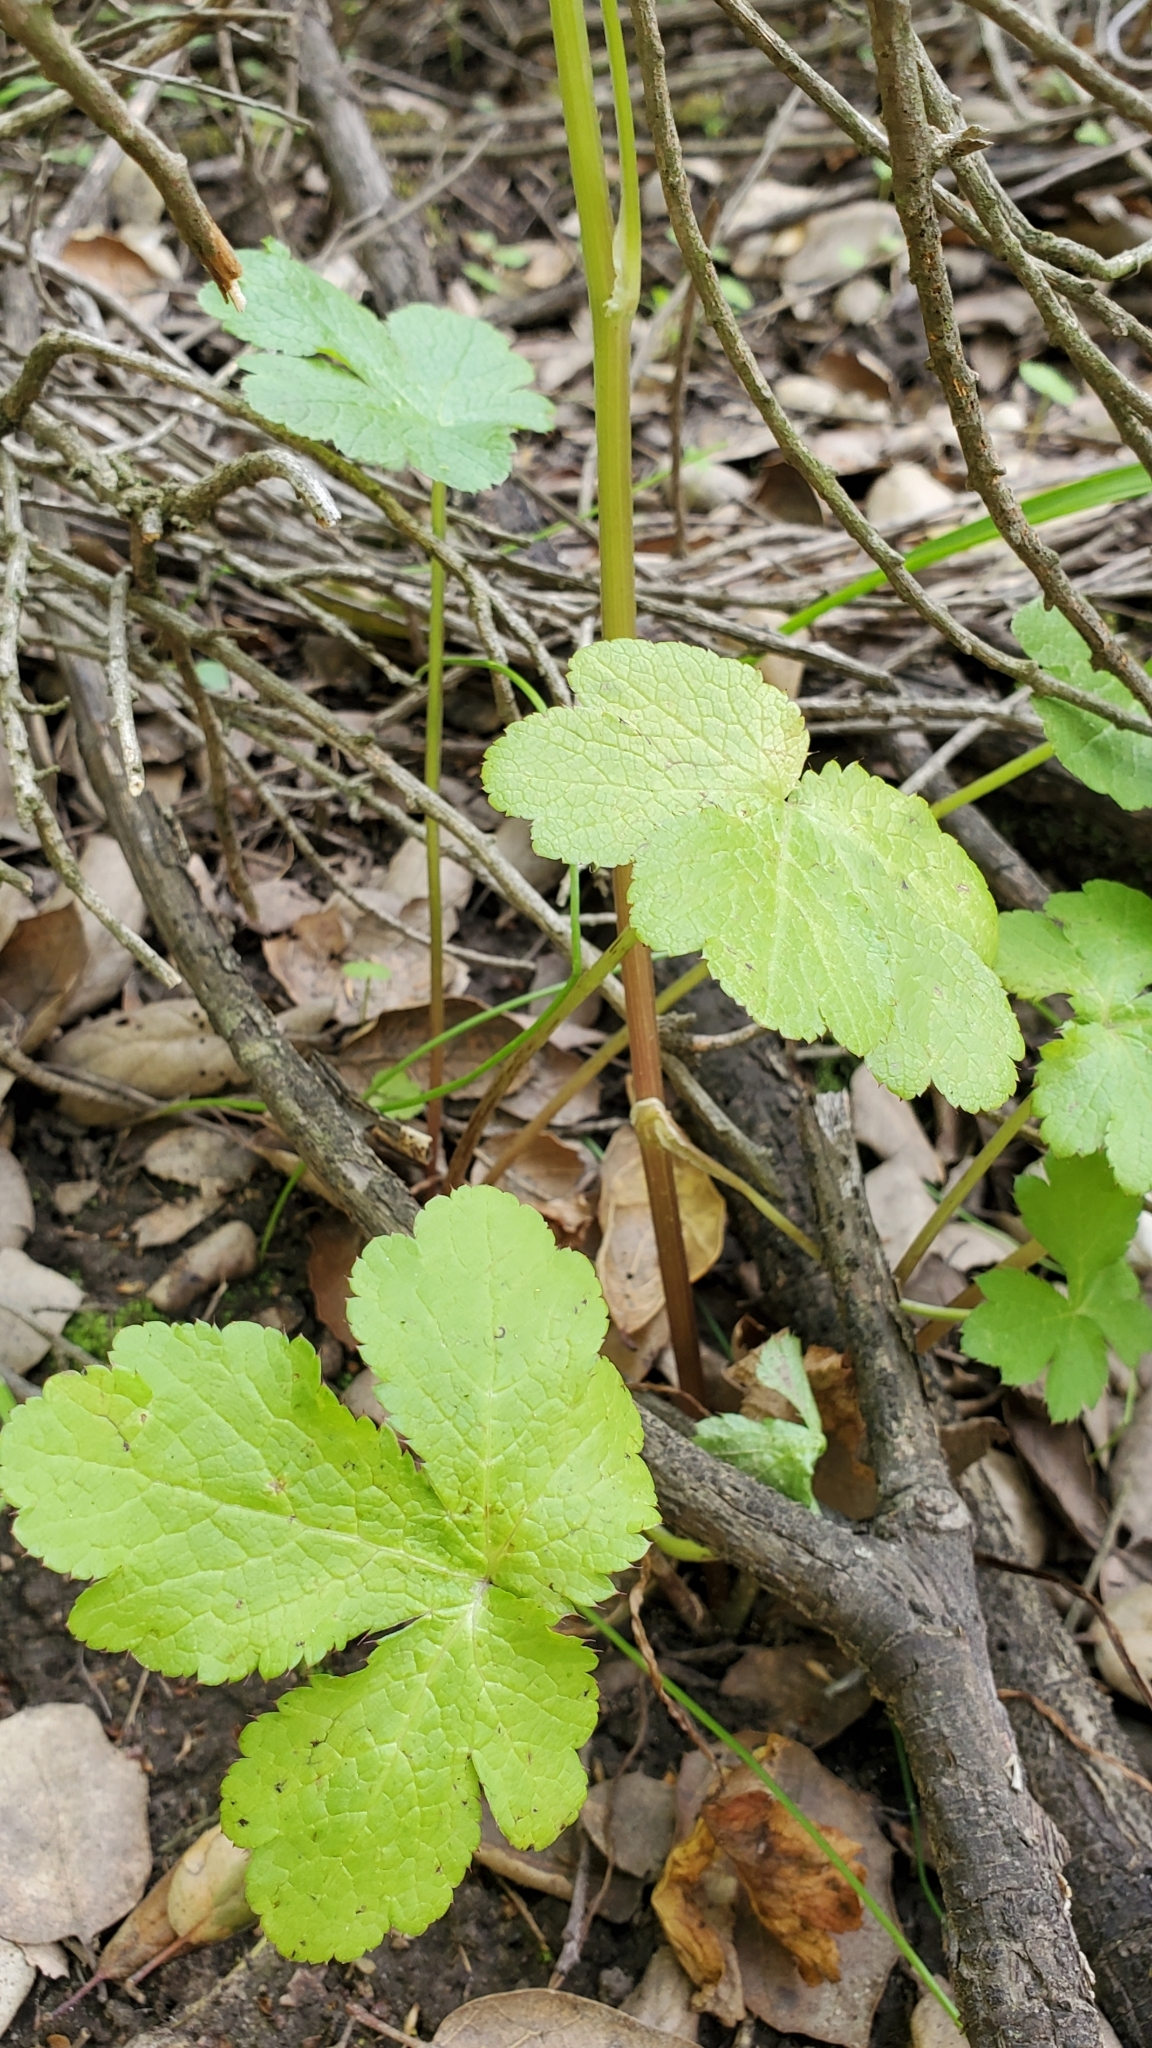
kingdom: Plantae
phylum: Tracheophyta
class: Magnoliopsida
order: Apiales
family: Apiaceae
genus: Sanicula
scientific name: Sanicula crassicaulis
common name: Western snakeroot
